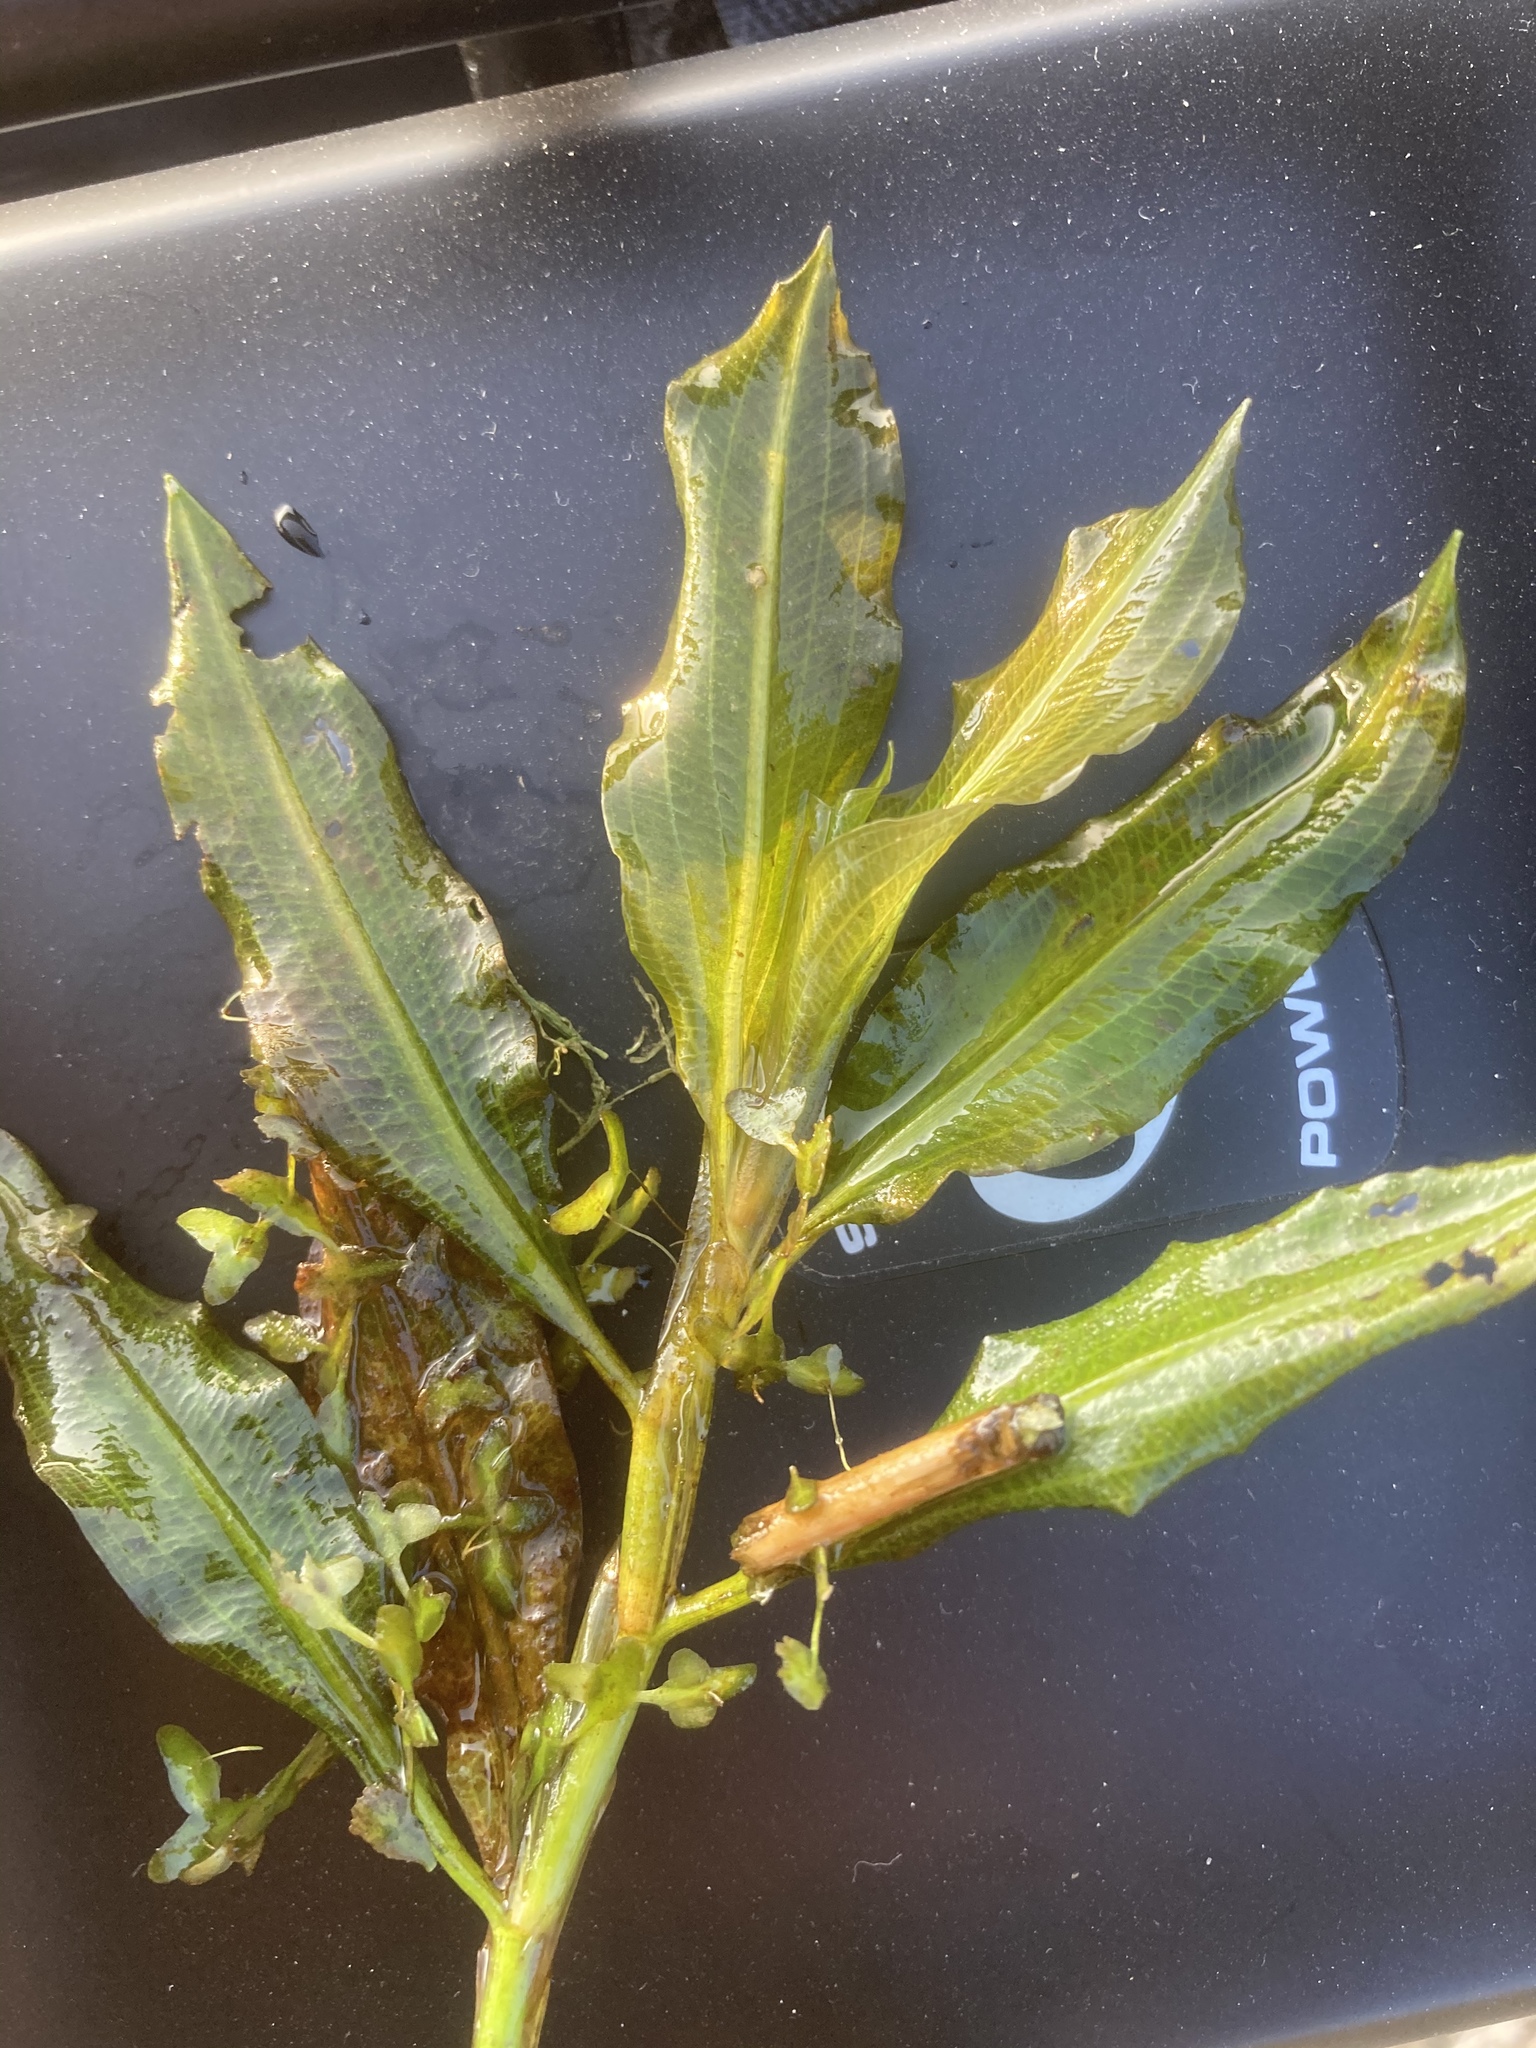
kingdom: Plantae
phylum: Tracheophyta
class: Liliopsida
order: Alismatales
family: Potamogetonaceae
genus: Potamogeton
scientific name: Potamogeton lucens
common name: Shining pondweed
